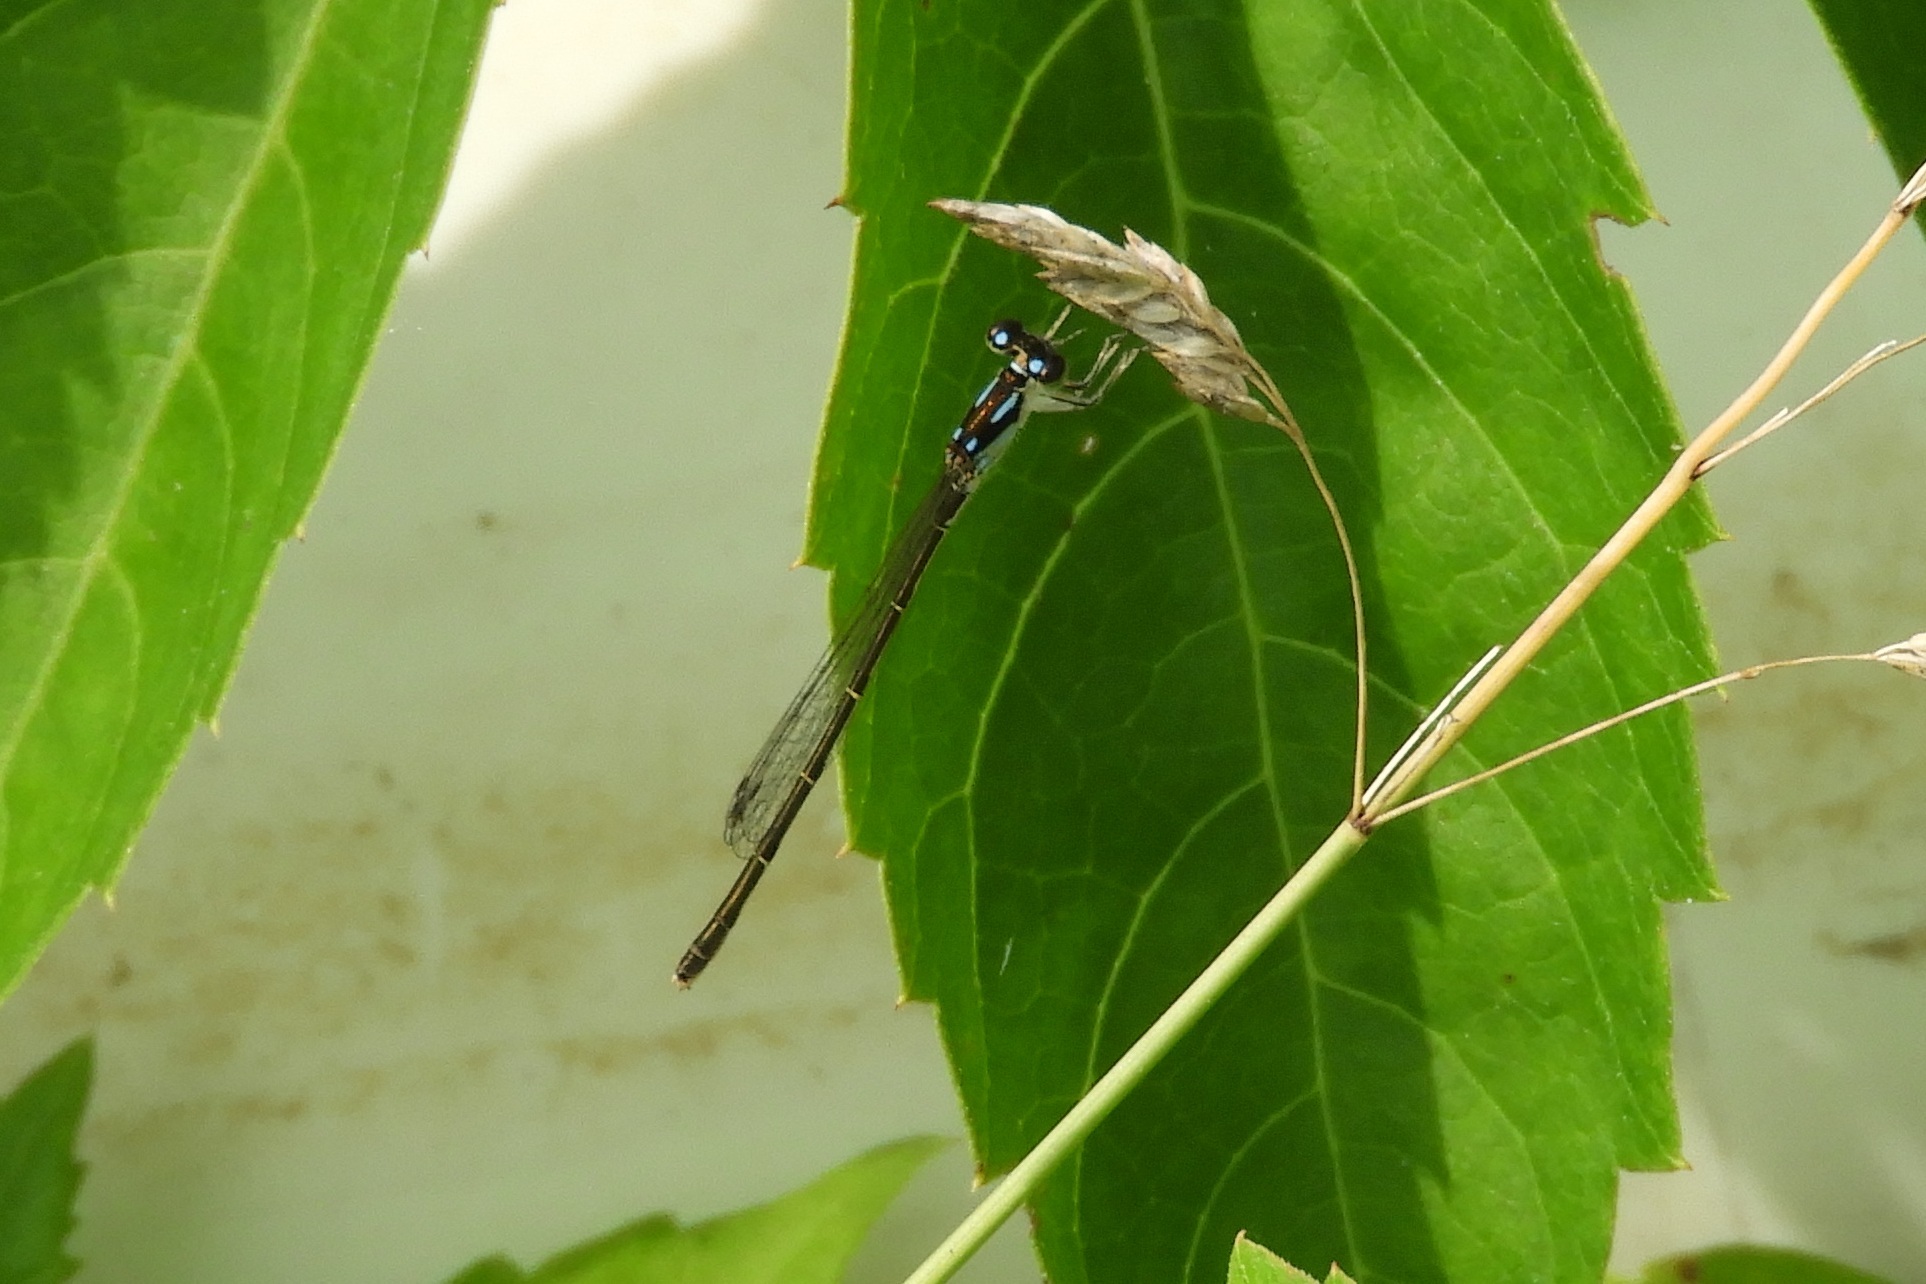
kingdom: Animalia
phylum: Arthropoda
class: Insecta
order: Odonata
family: Coenagrionidae
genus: Ischnura
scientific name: Ischnura posita
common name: Fragile forktail
